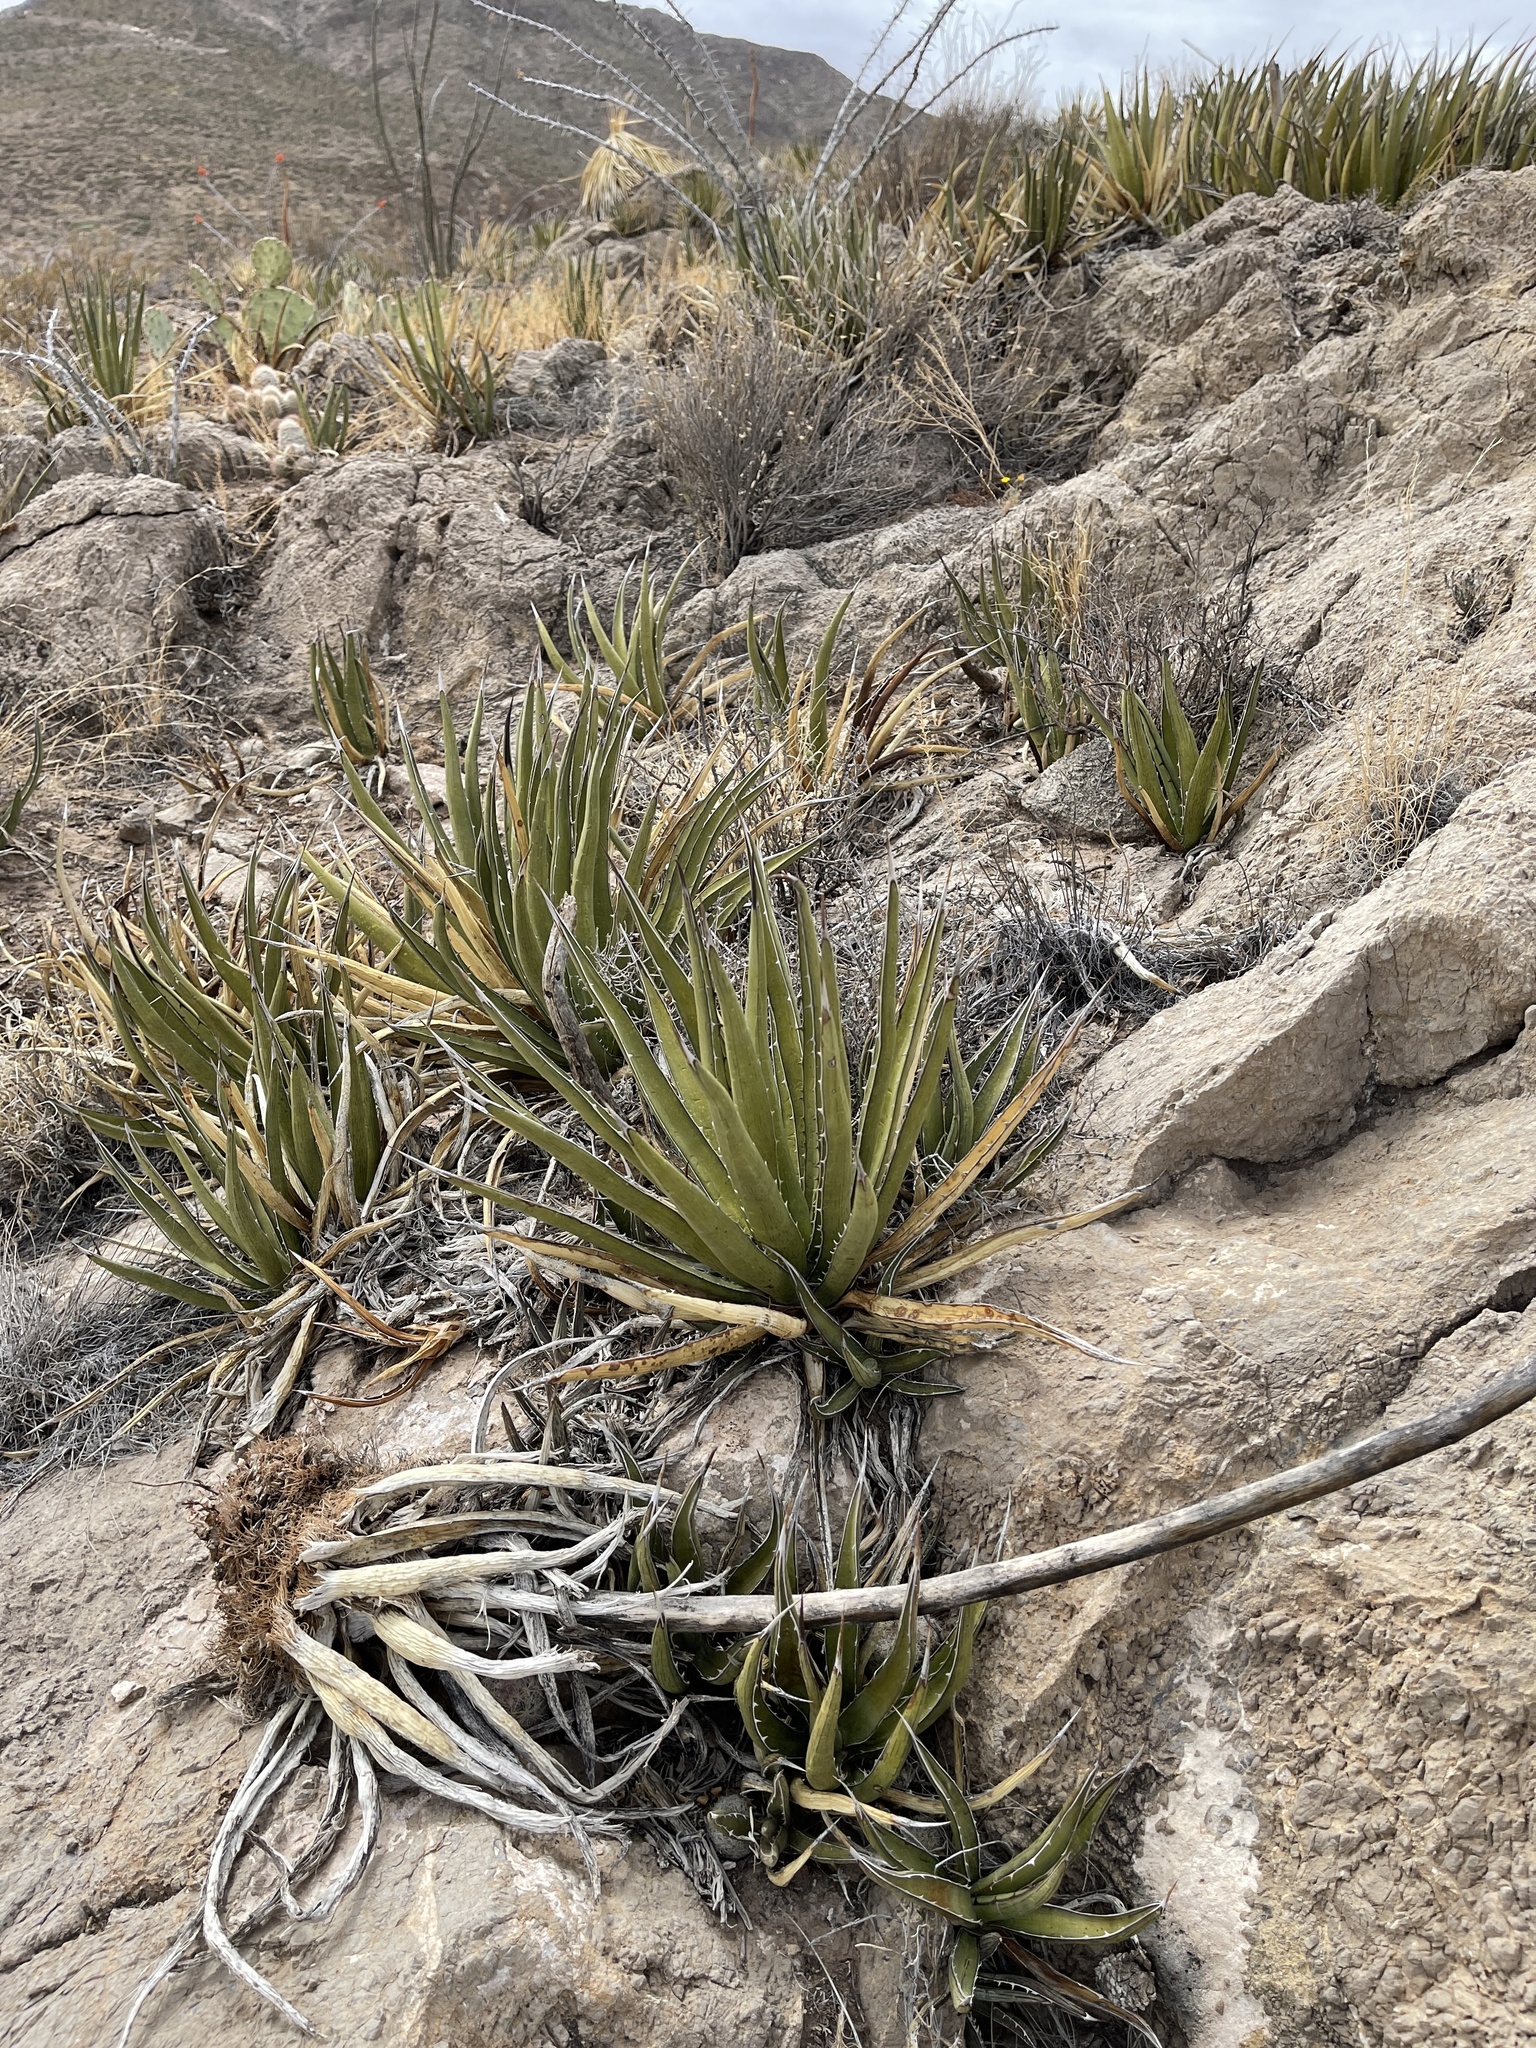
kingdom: Plantae
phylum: Tracheophyta
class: Liliopsida
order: Asparagales
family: Asparagaceae
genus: Agave
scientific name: Agave lechuguilla
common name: Lecheguilla agave
